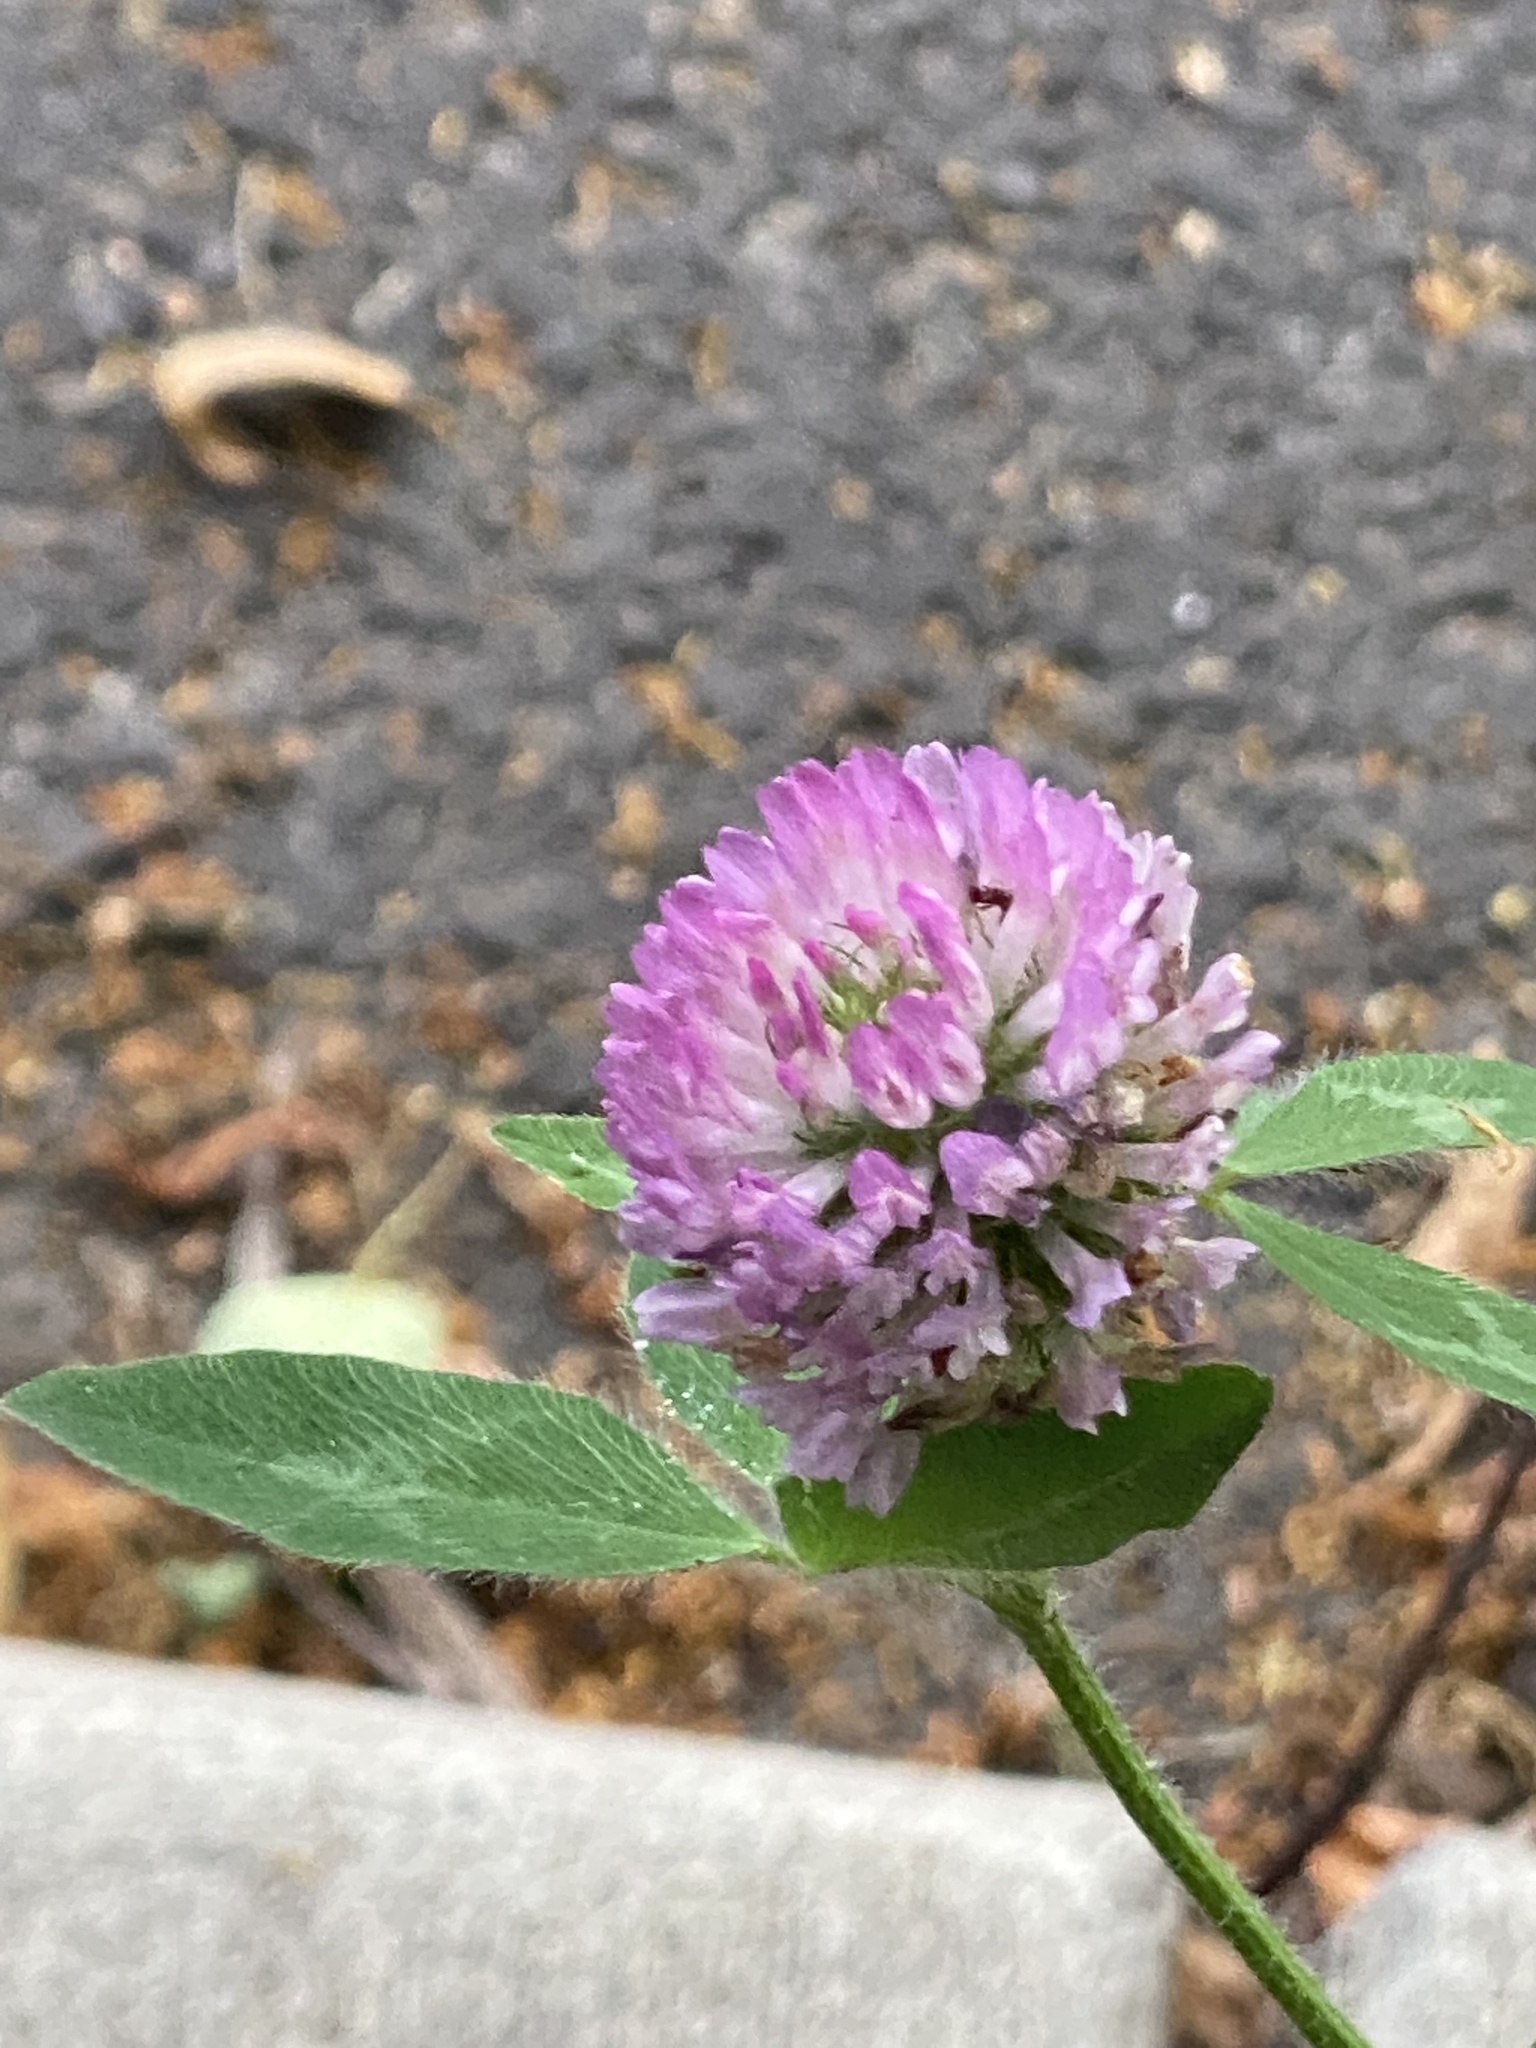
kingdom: Plantae
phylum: Tracheophyta
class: Magnoliopsida
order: Fabales
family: Fabaceae
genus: Trifolium
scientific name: Trifolium pratense
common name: Red clover
